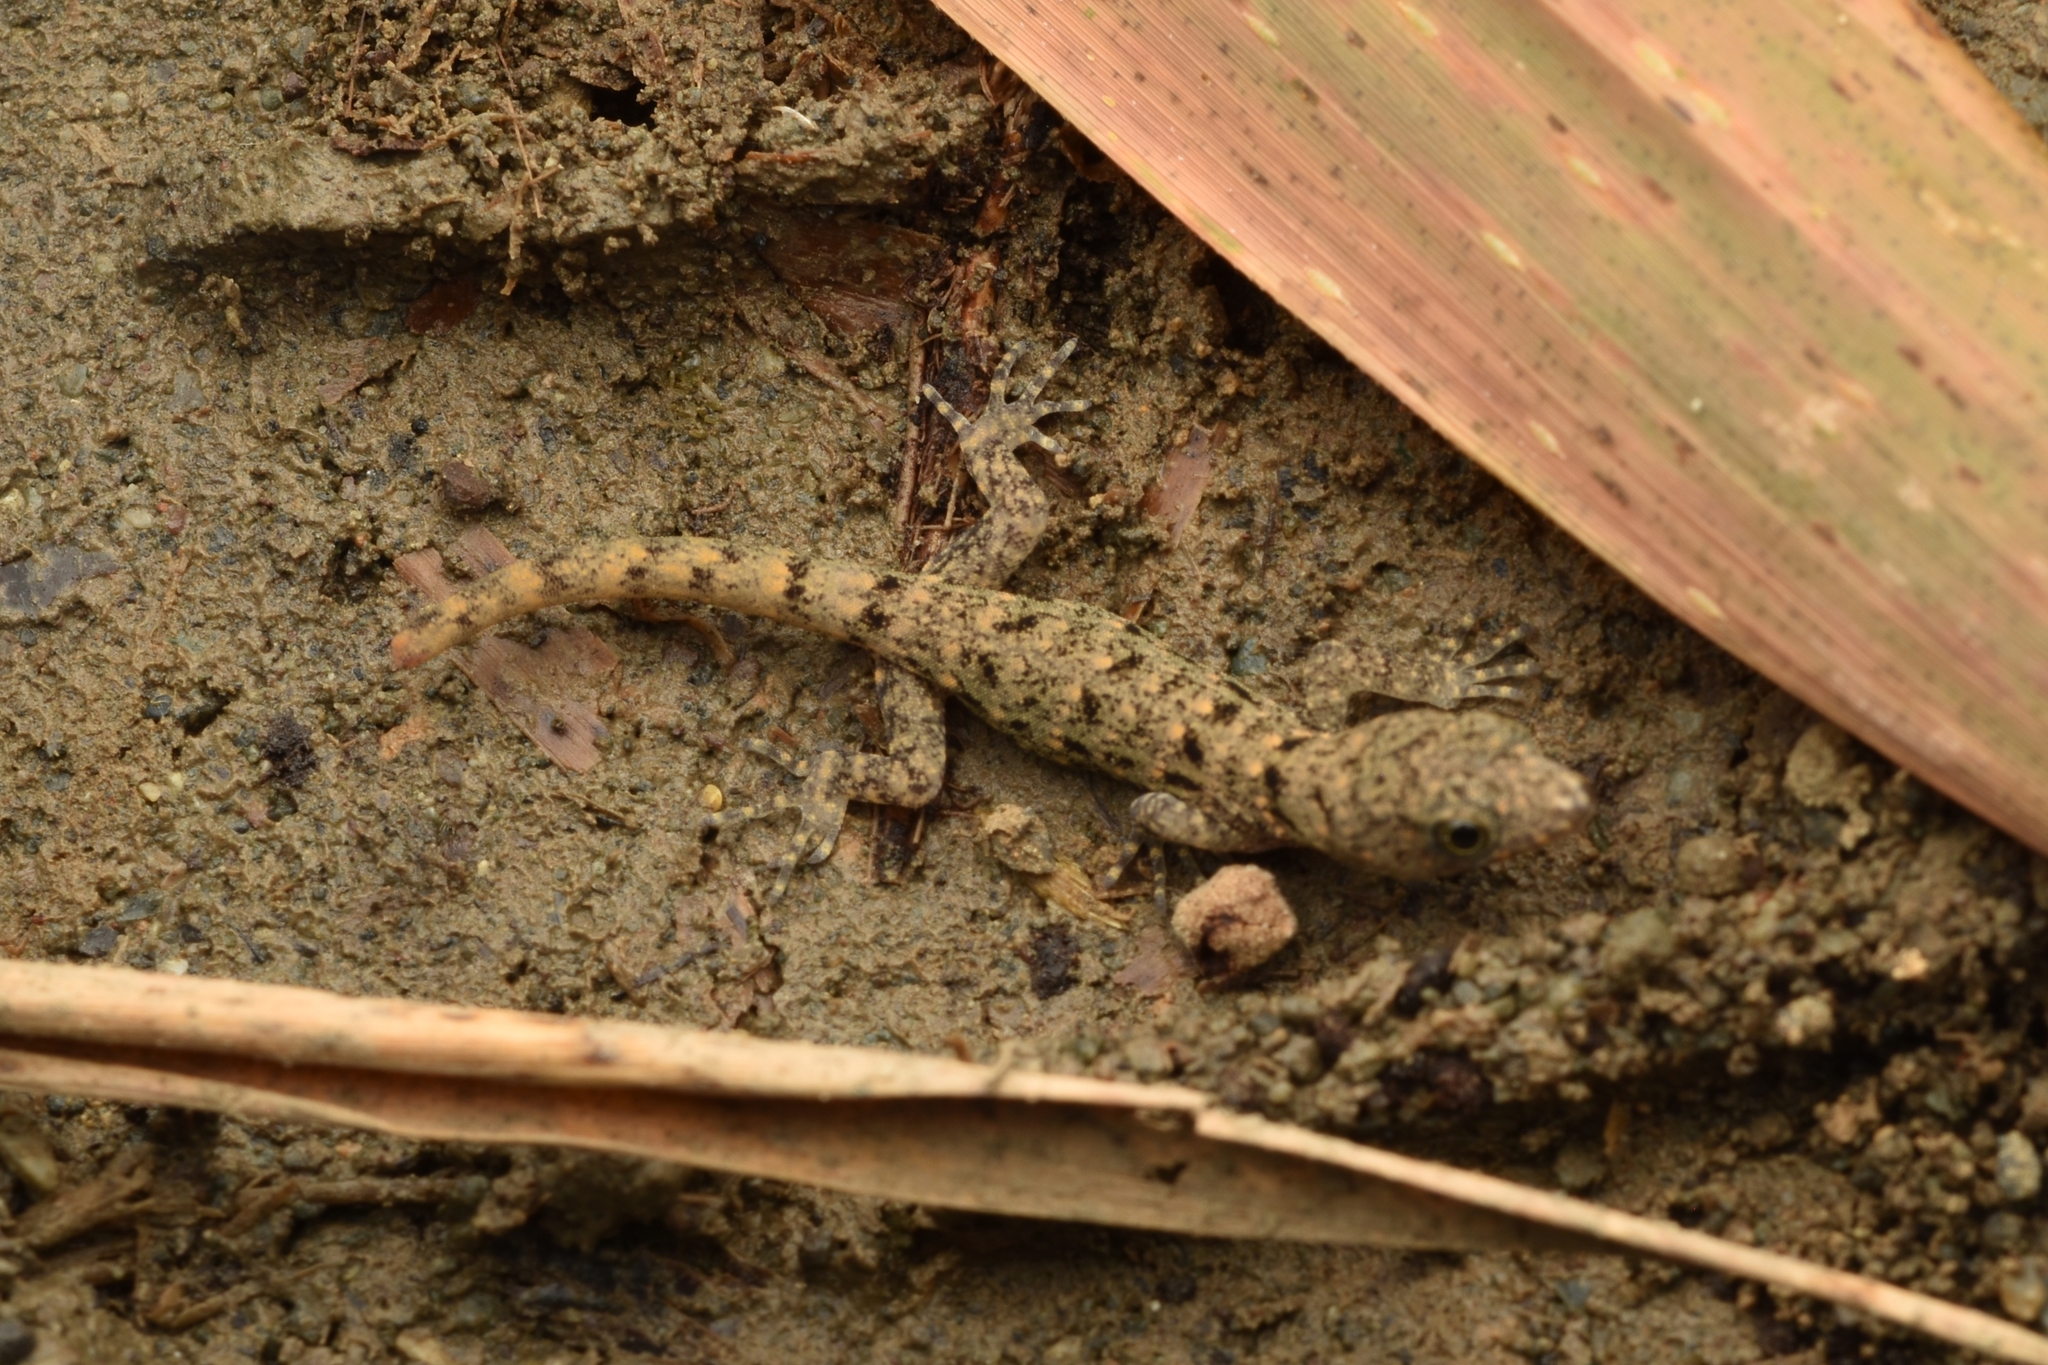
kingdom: Animalia
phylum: Chordata
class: Squamata
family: Sphaerodactylidae
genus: Gonatodes
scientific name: Gonatodes albogularis
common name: Yellow-headed gecko
